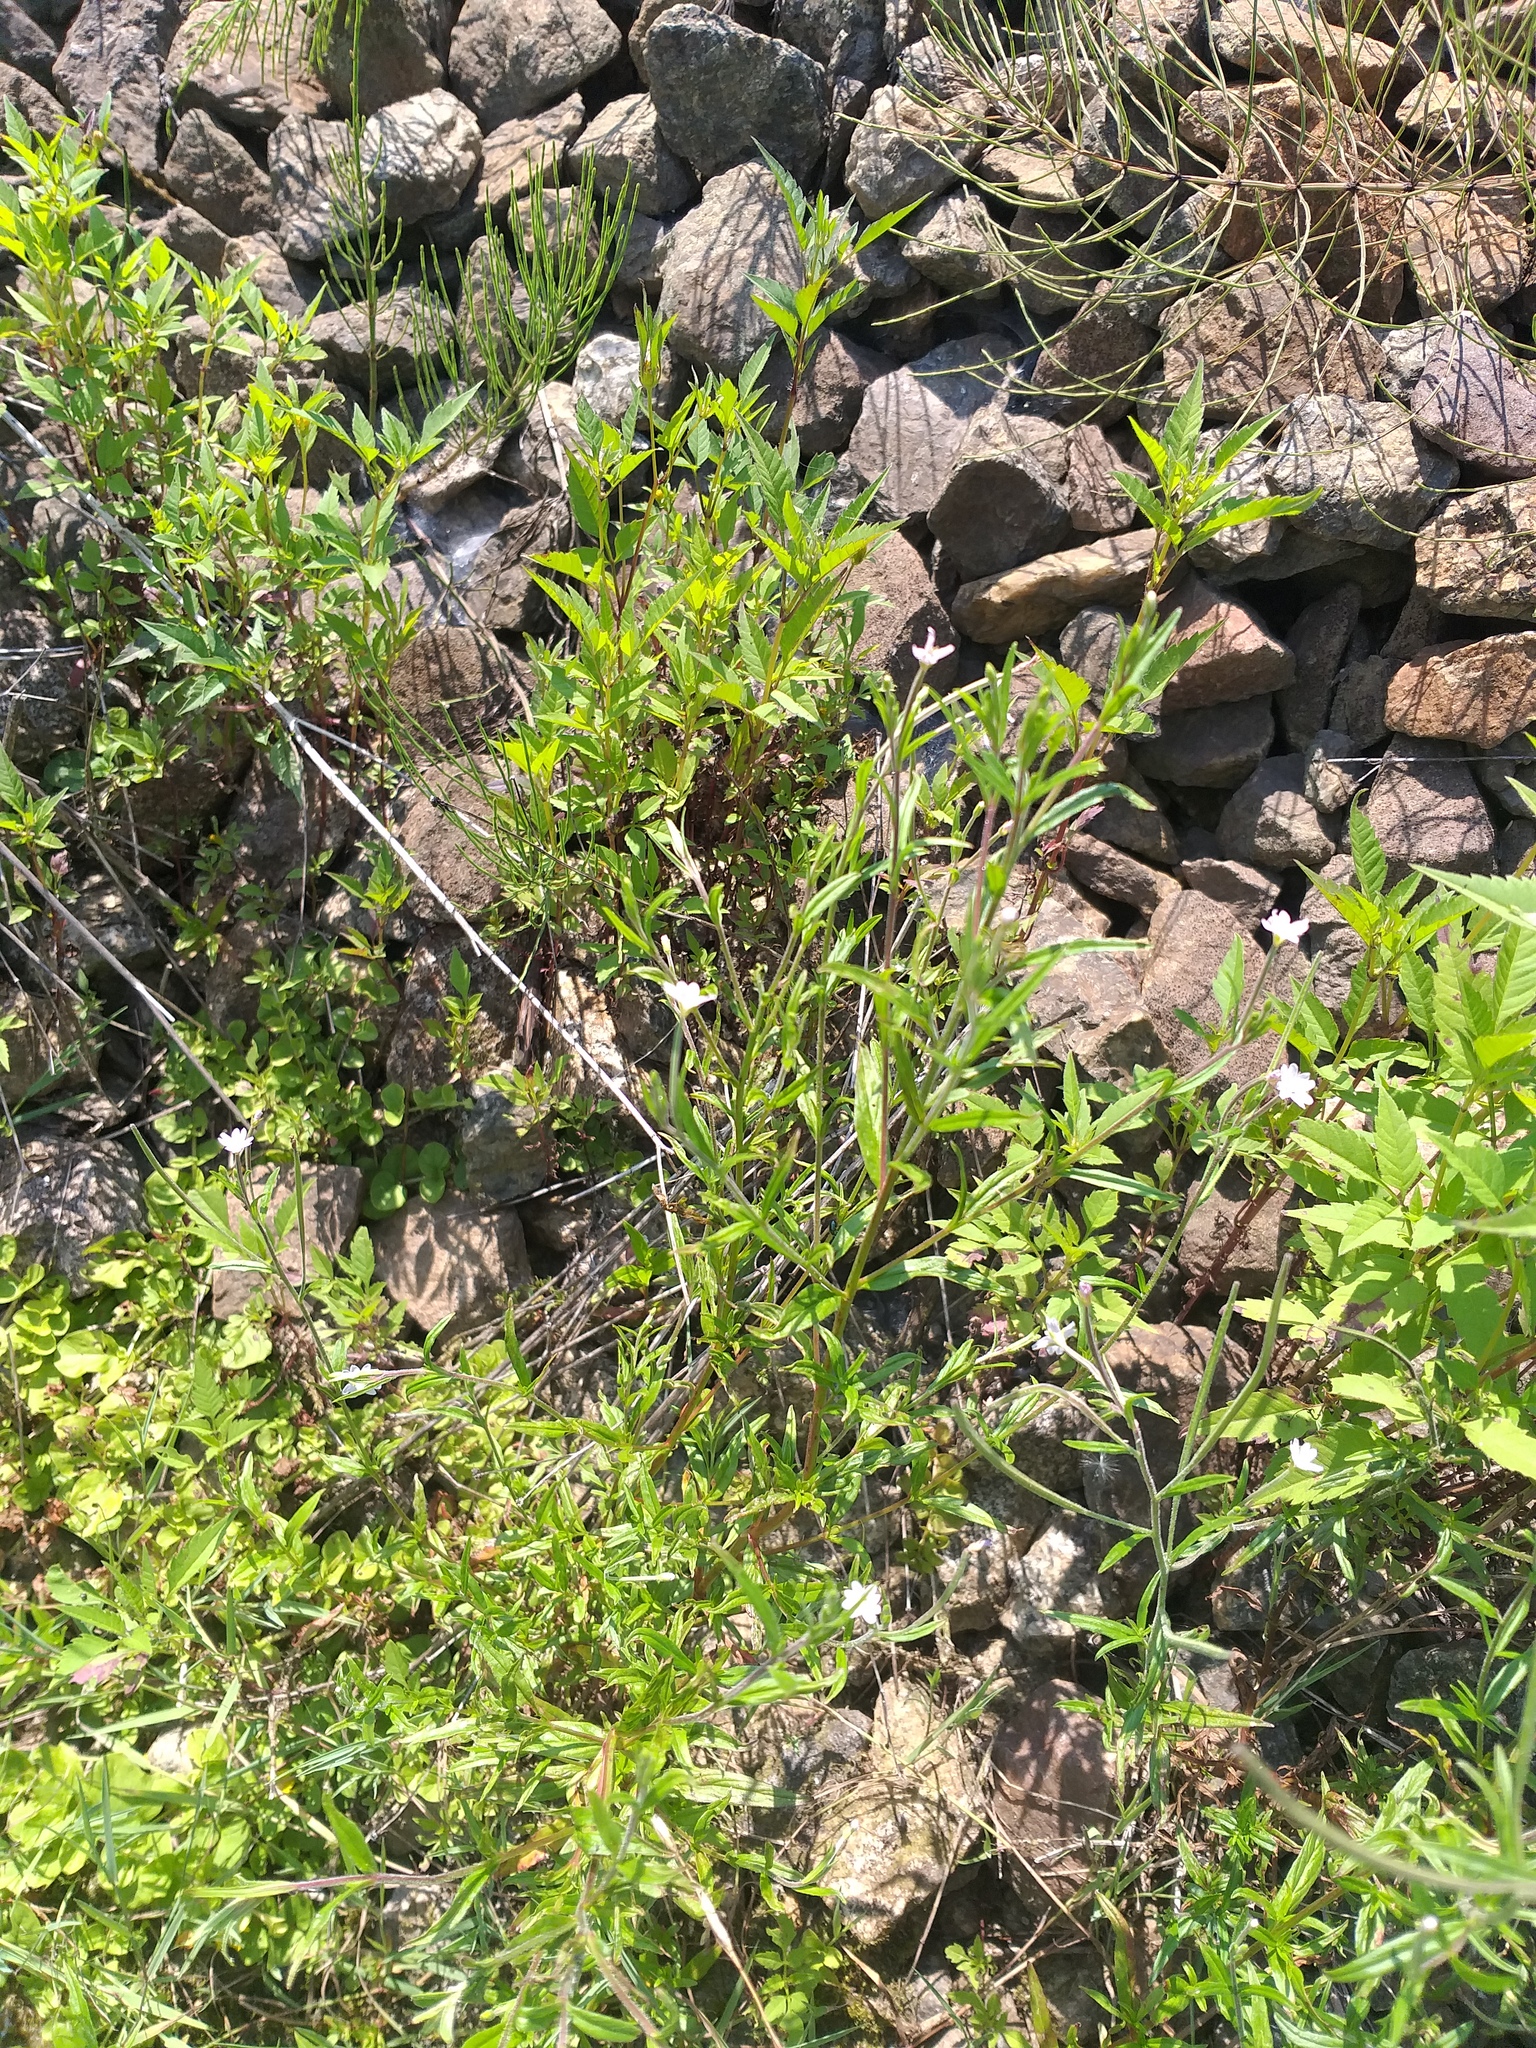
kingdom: Plantae
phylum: Tracheophyta
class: Magnoliopsida
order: Myrtales
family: Onagraceae
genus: Epilobium
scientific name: Epilobium palustre
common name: Marsh willowherb
